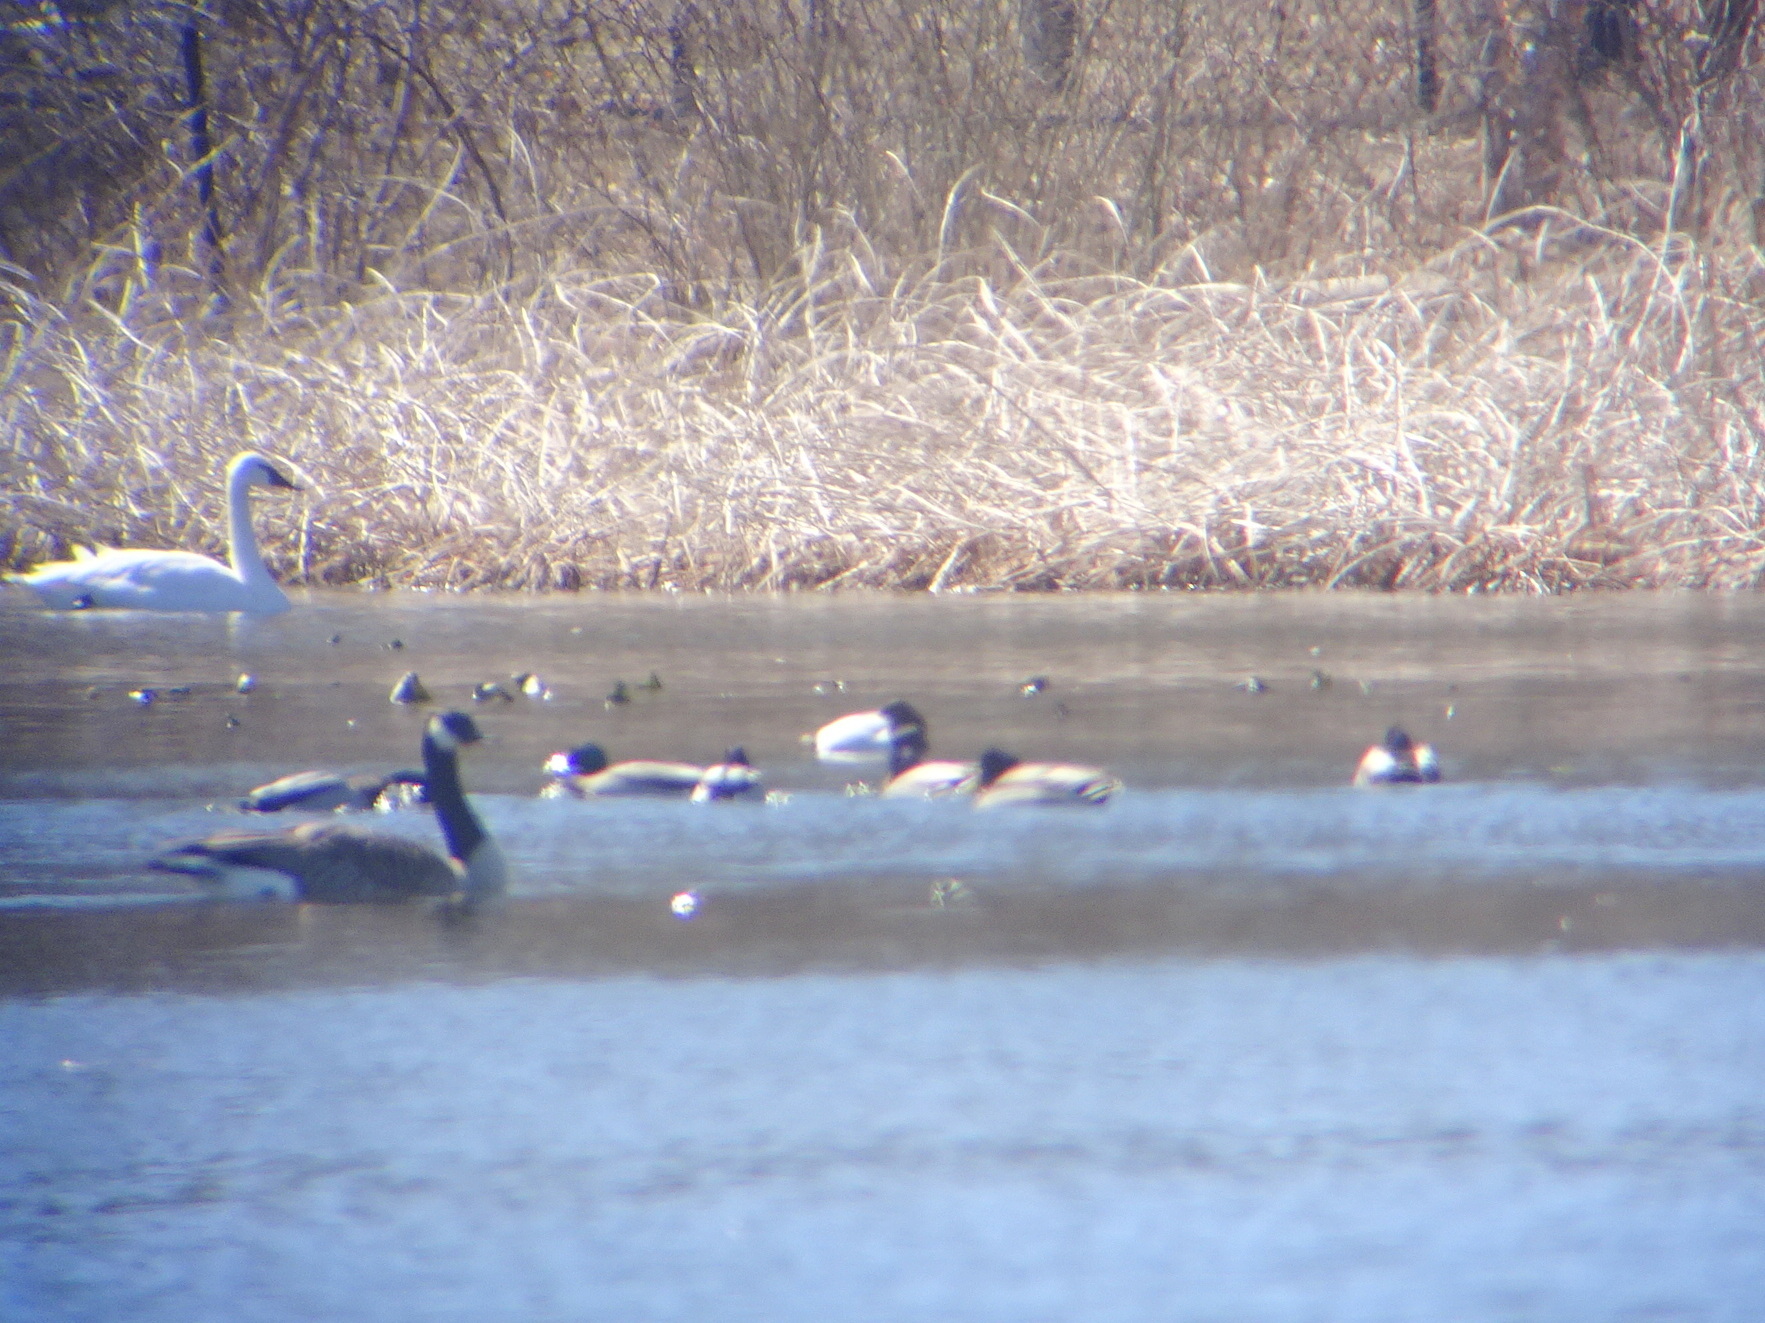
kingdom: Animalia
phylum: Chordata
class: Aves
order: Anseriformes
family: Anatidae
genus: Aythya
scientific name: Aythya valisineria
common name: Canvasback
